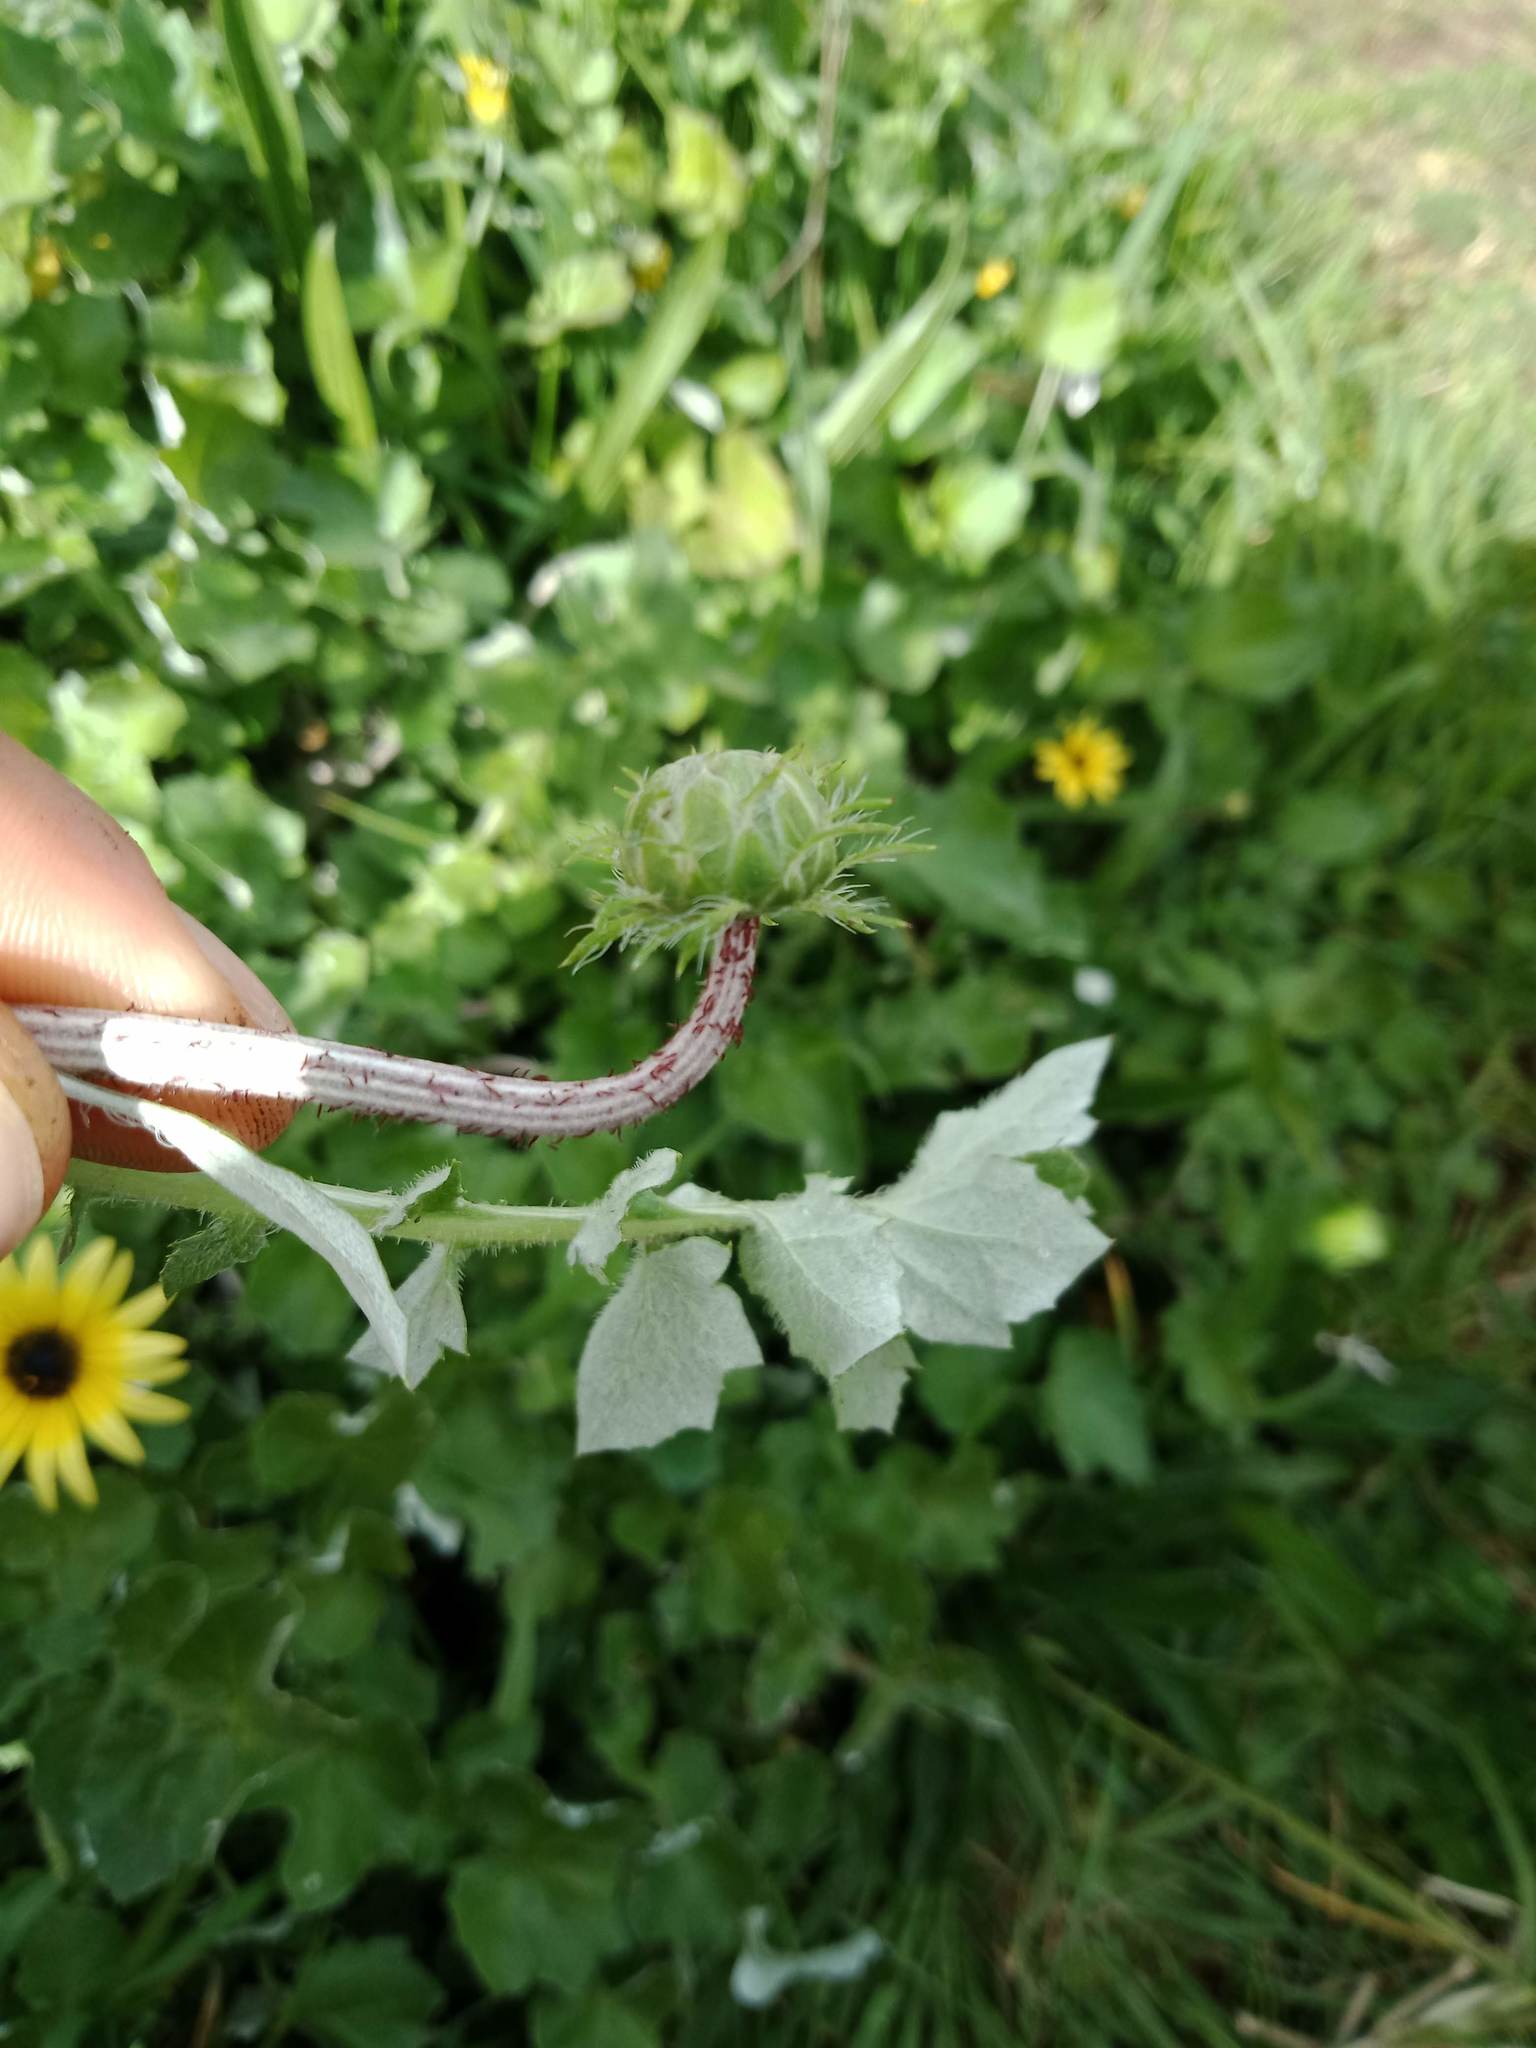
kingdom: Plantae
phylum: Tracheophyta
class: Magnoliopsida
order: Asterales
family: Asteraceae
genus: Arctotheca
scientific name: Arctotheca calendula
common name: Capeweed
